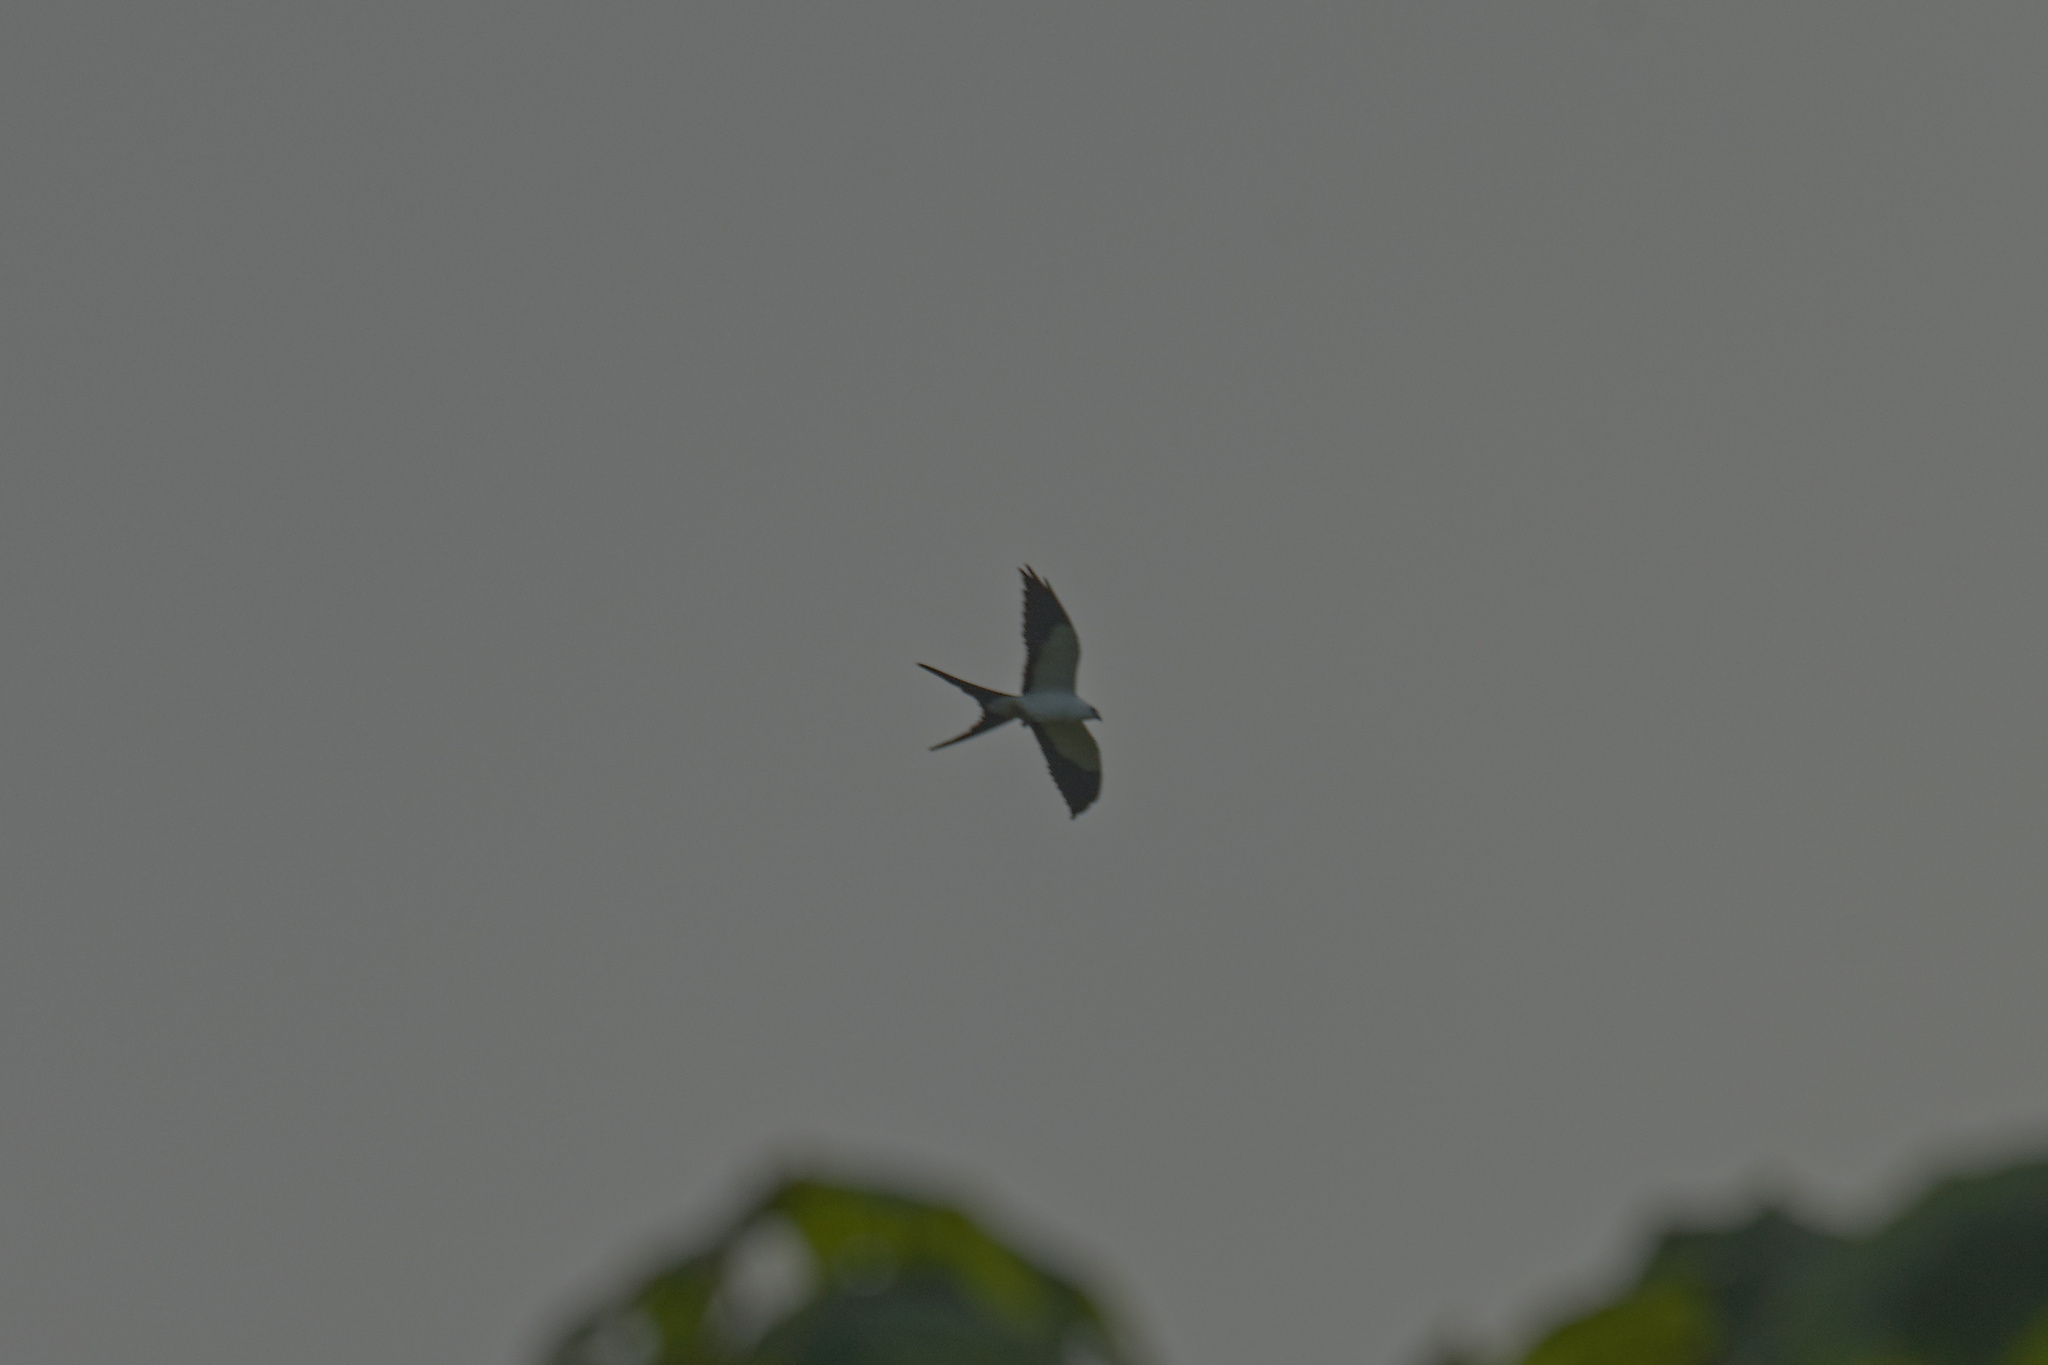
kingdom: Animalia
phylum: Chordata
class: Aves
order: Accipitriformes
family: Accipitridae
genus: Elanoides
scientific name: Elanoides forficatus
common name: Swallow-tailed kite
